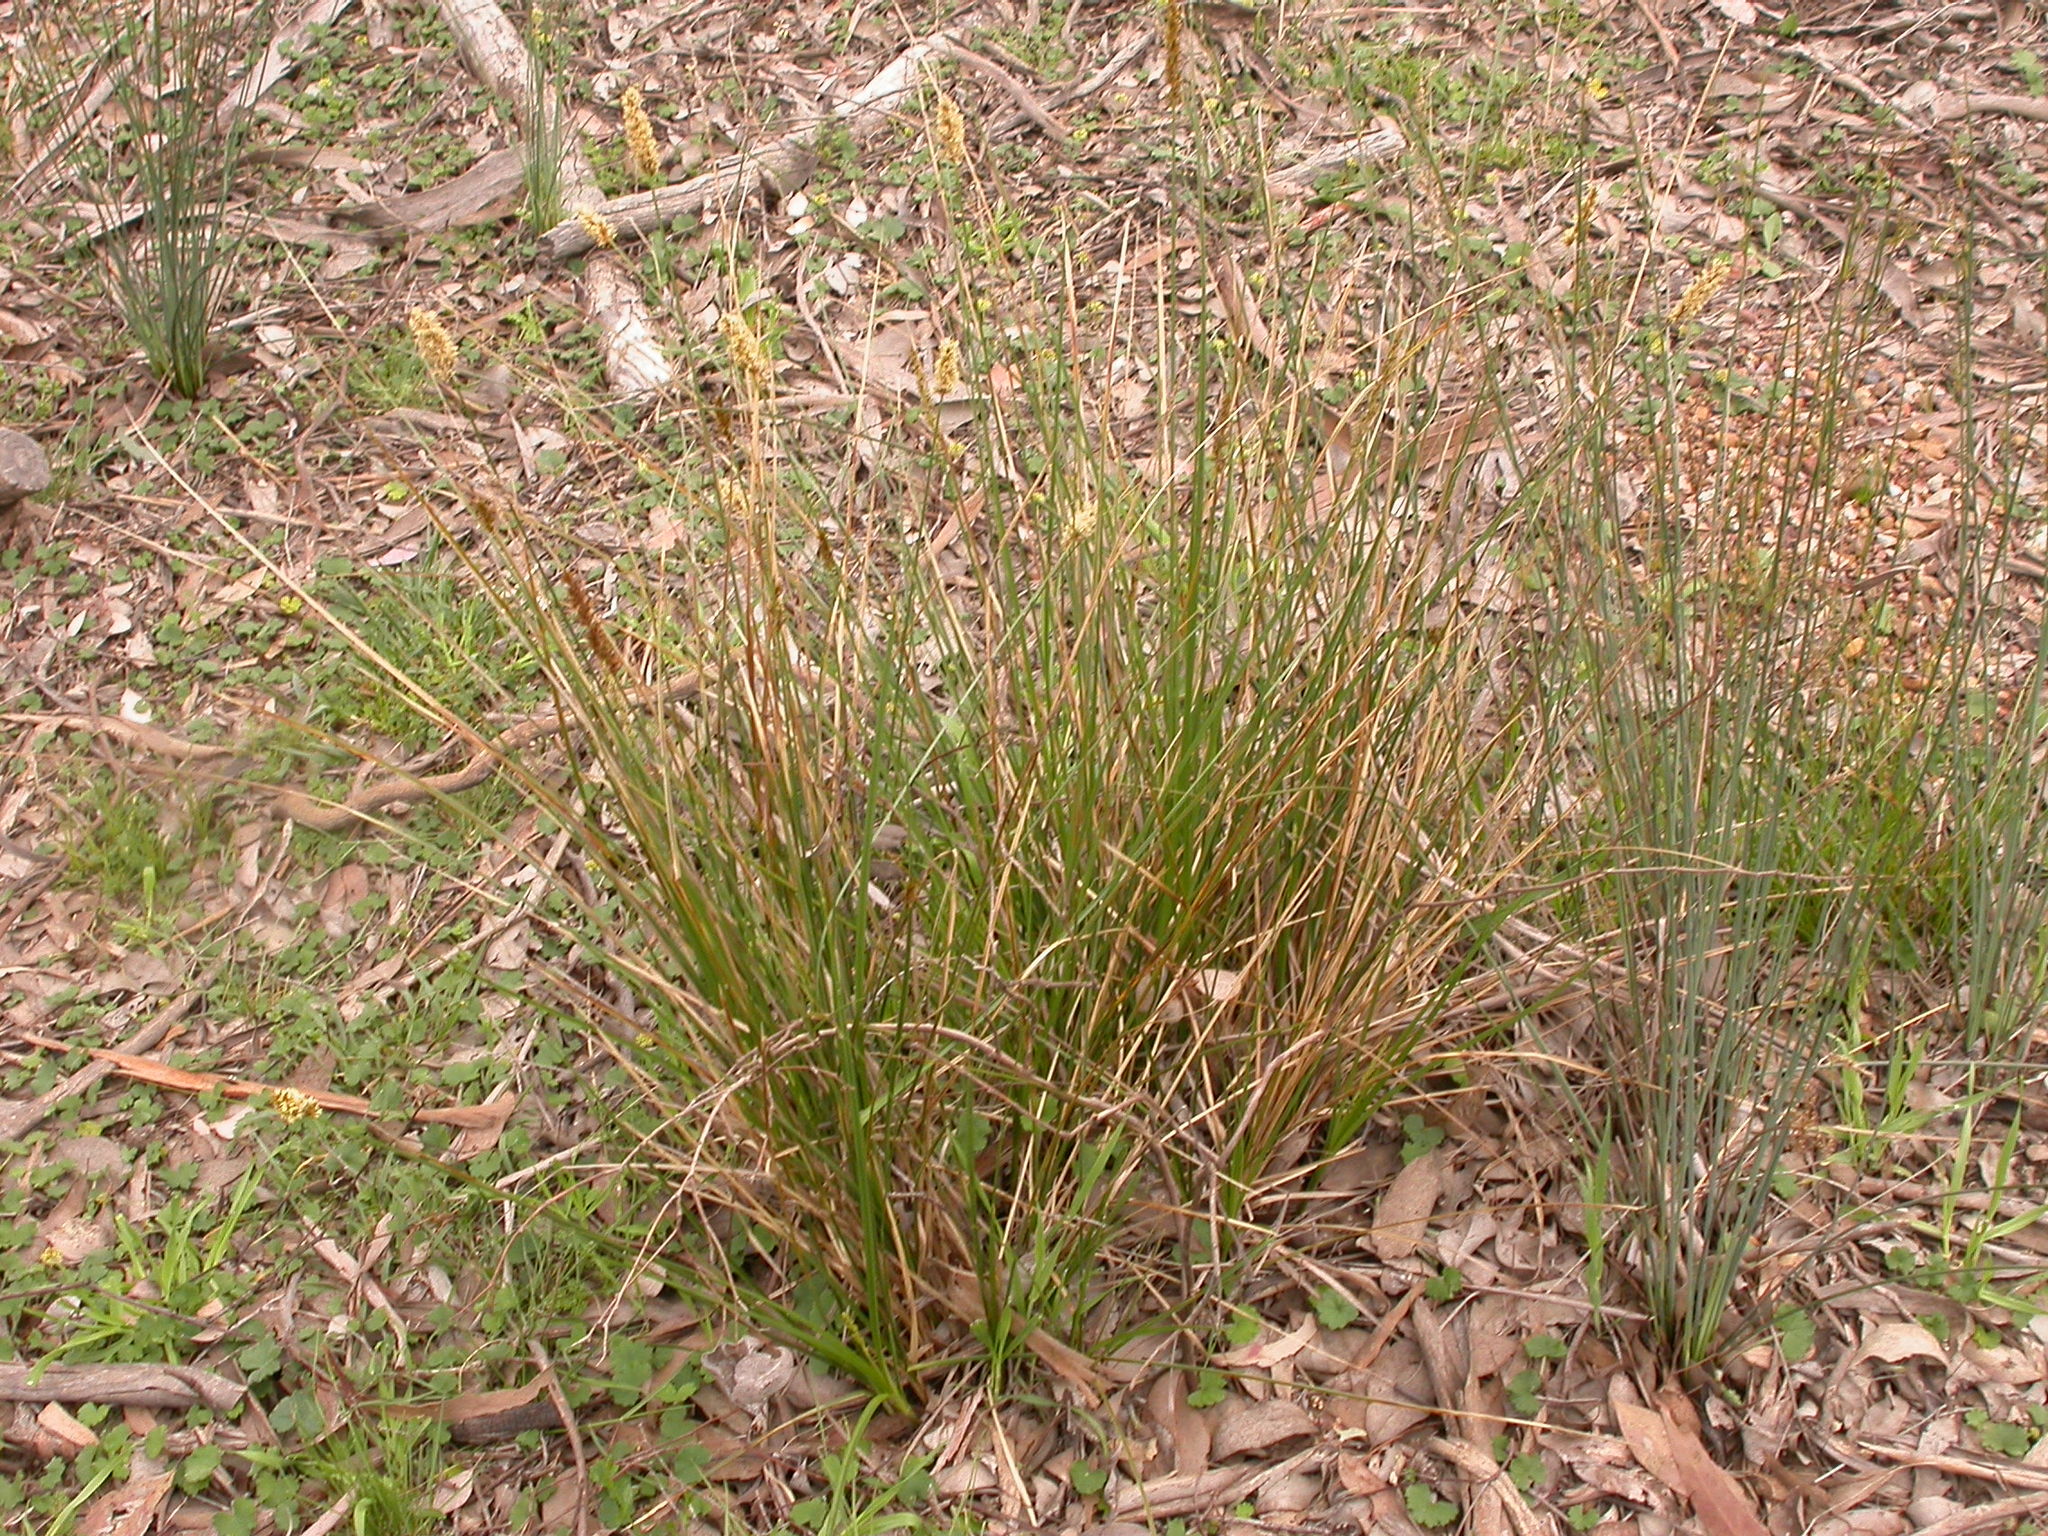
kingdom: Plantae
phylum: Tracheophyta
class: Liliopsida
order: Poales
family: Cyperaceae
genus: Carex
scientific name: Carex appressa
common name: Tussock sedge
